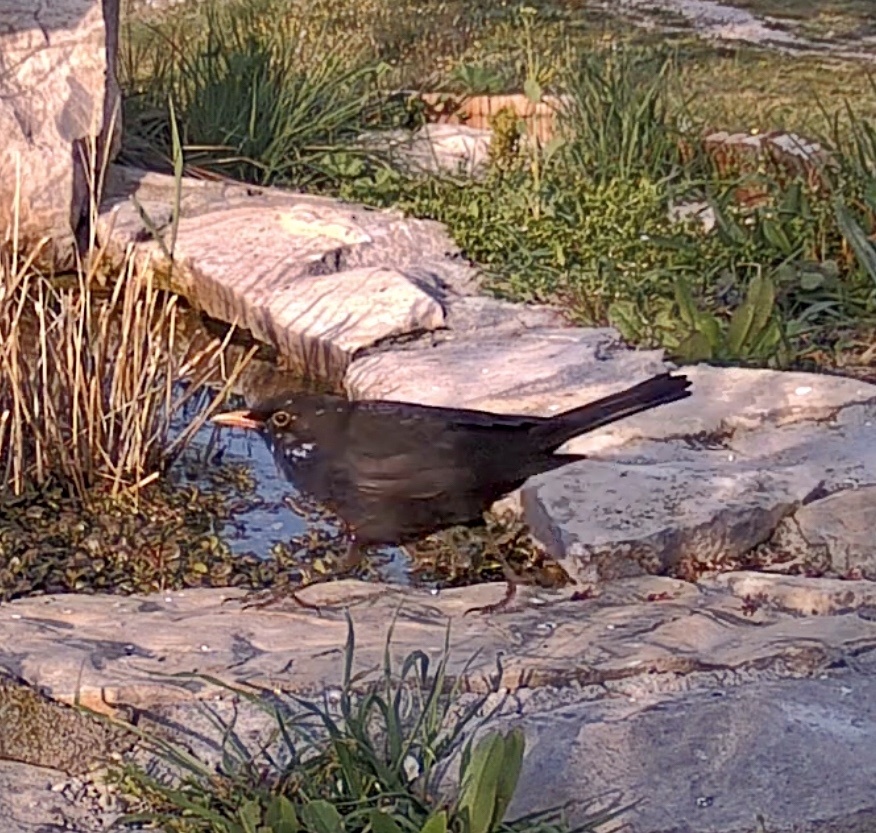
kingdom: Animalia
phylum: Chordata
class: Aves
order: Passeriformes
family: Turdidae
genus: Turdus
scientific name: Turdus merula
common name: Common blackbird
